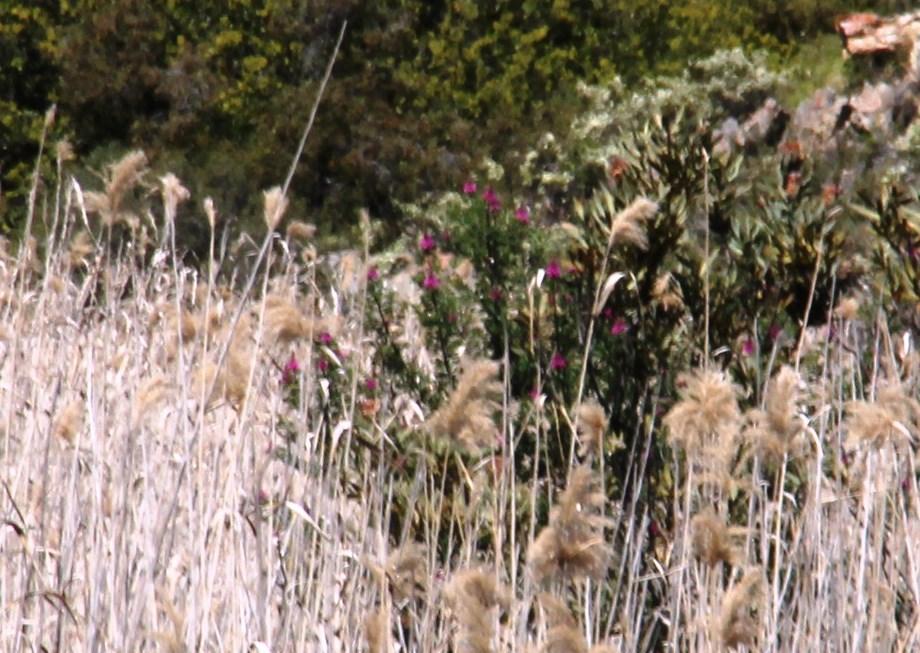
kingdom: Plantae
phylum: Tracheophyta
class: Magnoliopsida
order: Fabales
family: Fabaceae
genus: Hypocalyptus
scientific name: Hypocalyptus sophoroides
